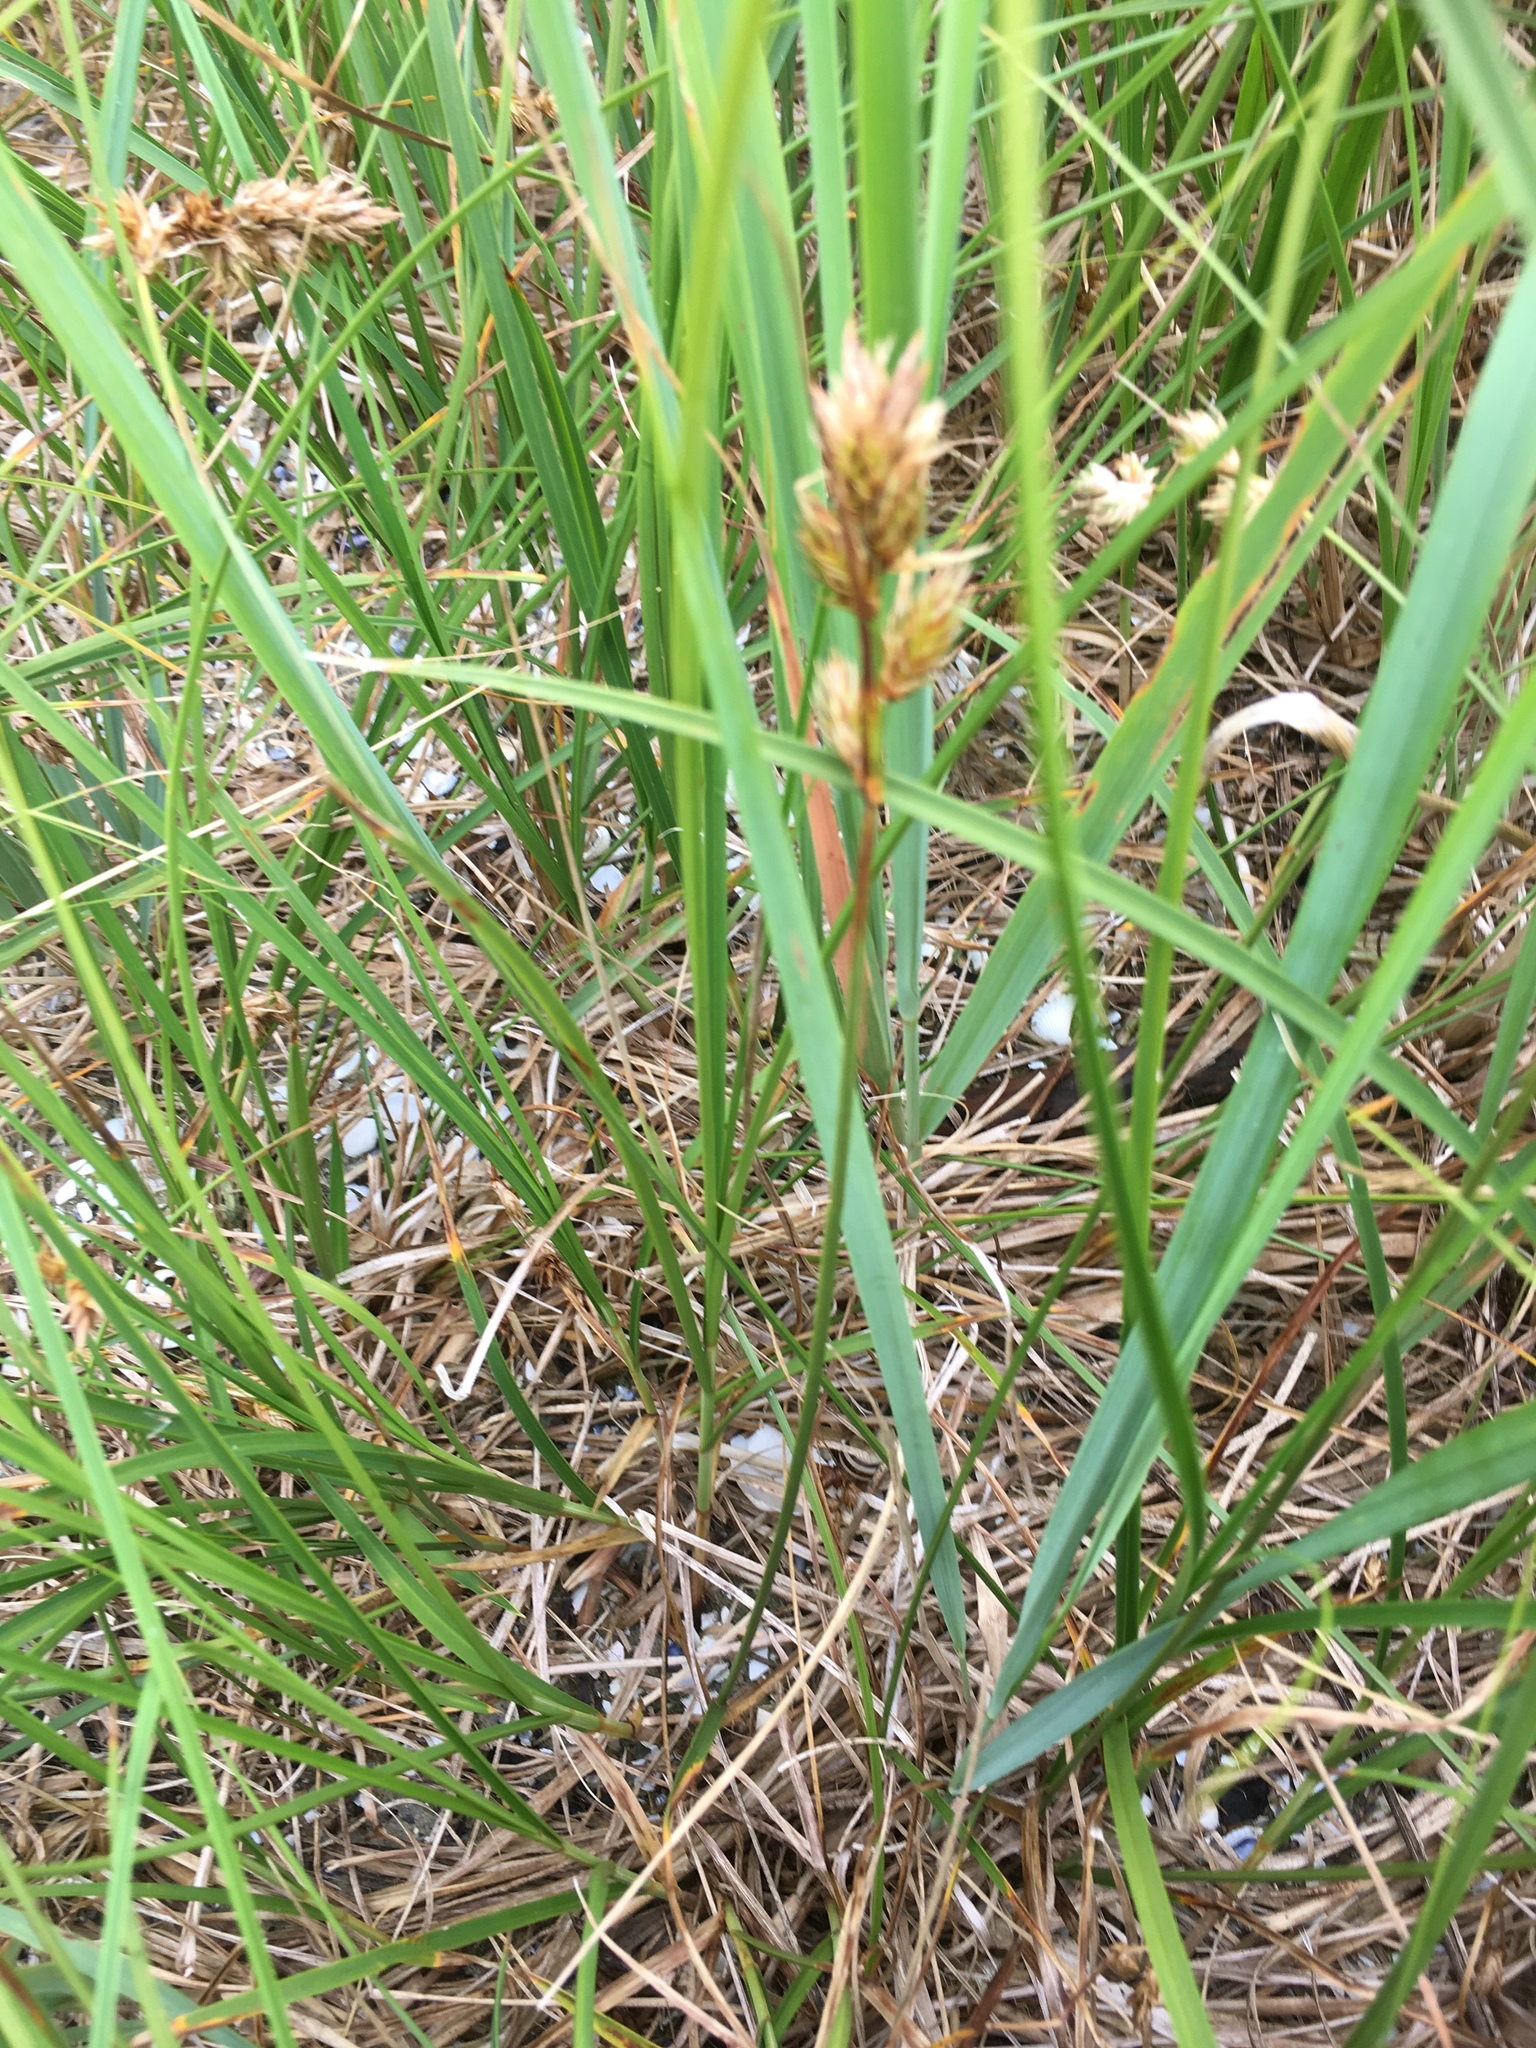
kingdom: Plantae
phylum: Tracheophyta
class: Liliopsida
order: Poales
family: Cyperaceae
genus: Carex
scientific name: Carex leporina
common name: Oval sedge
